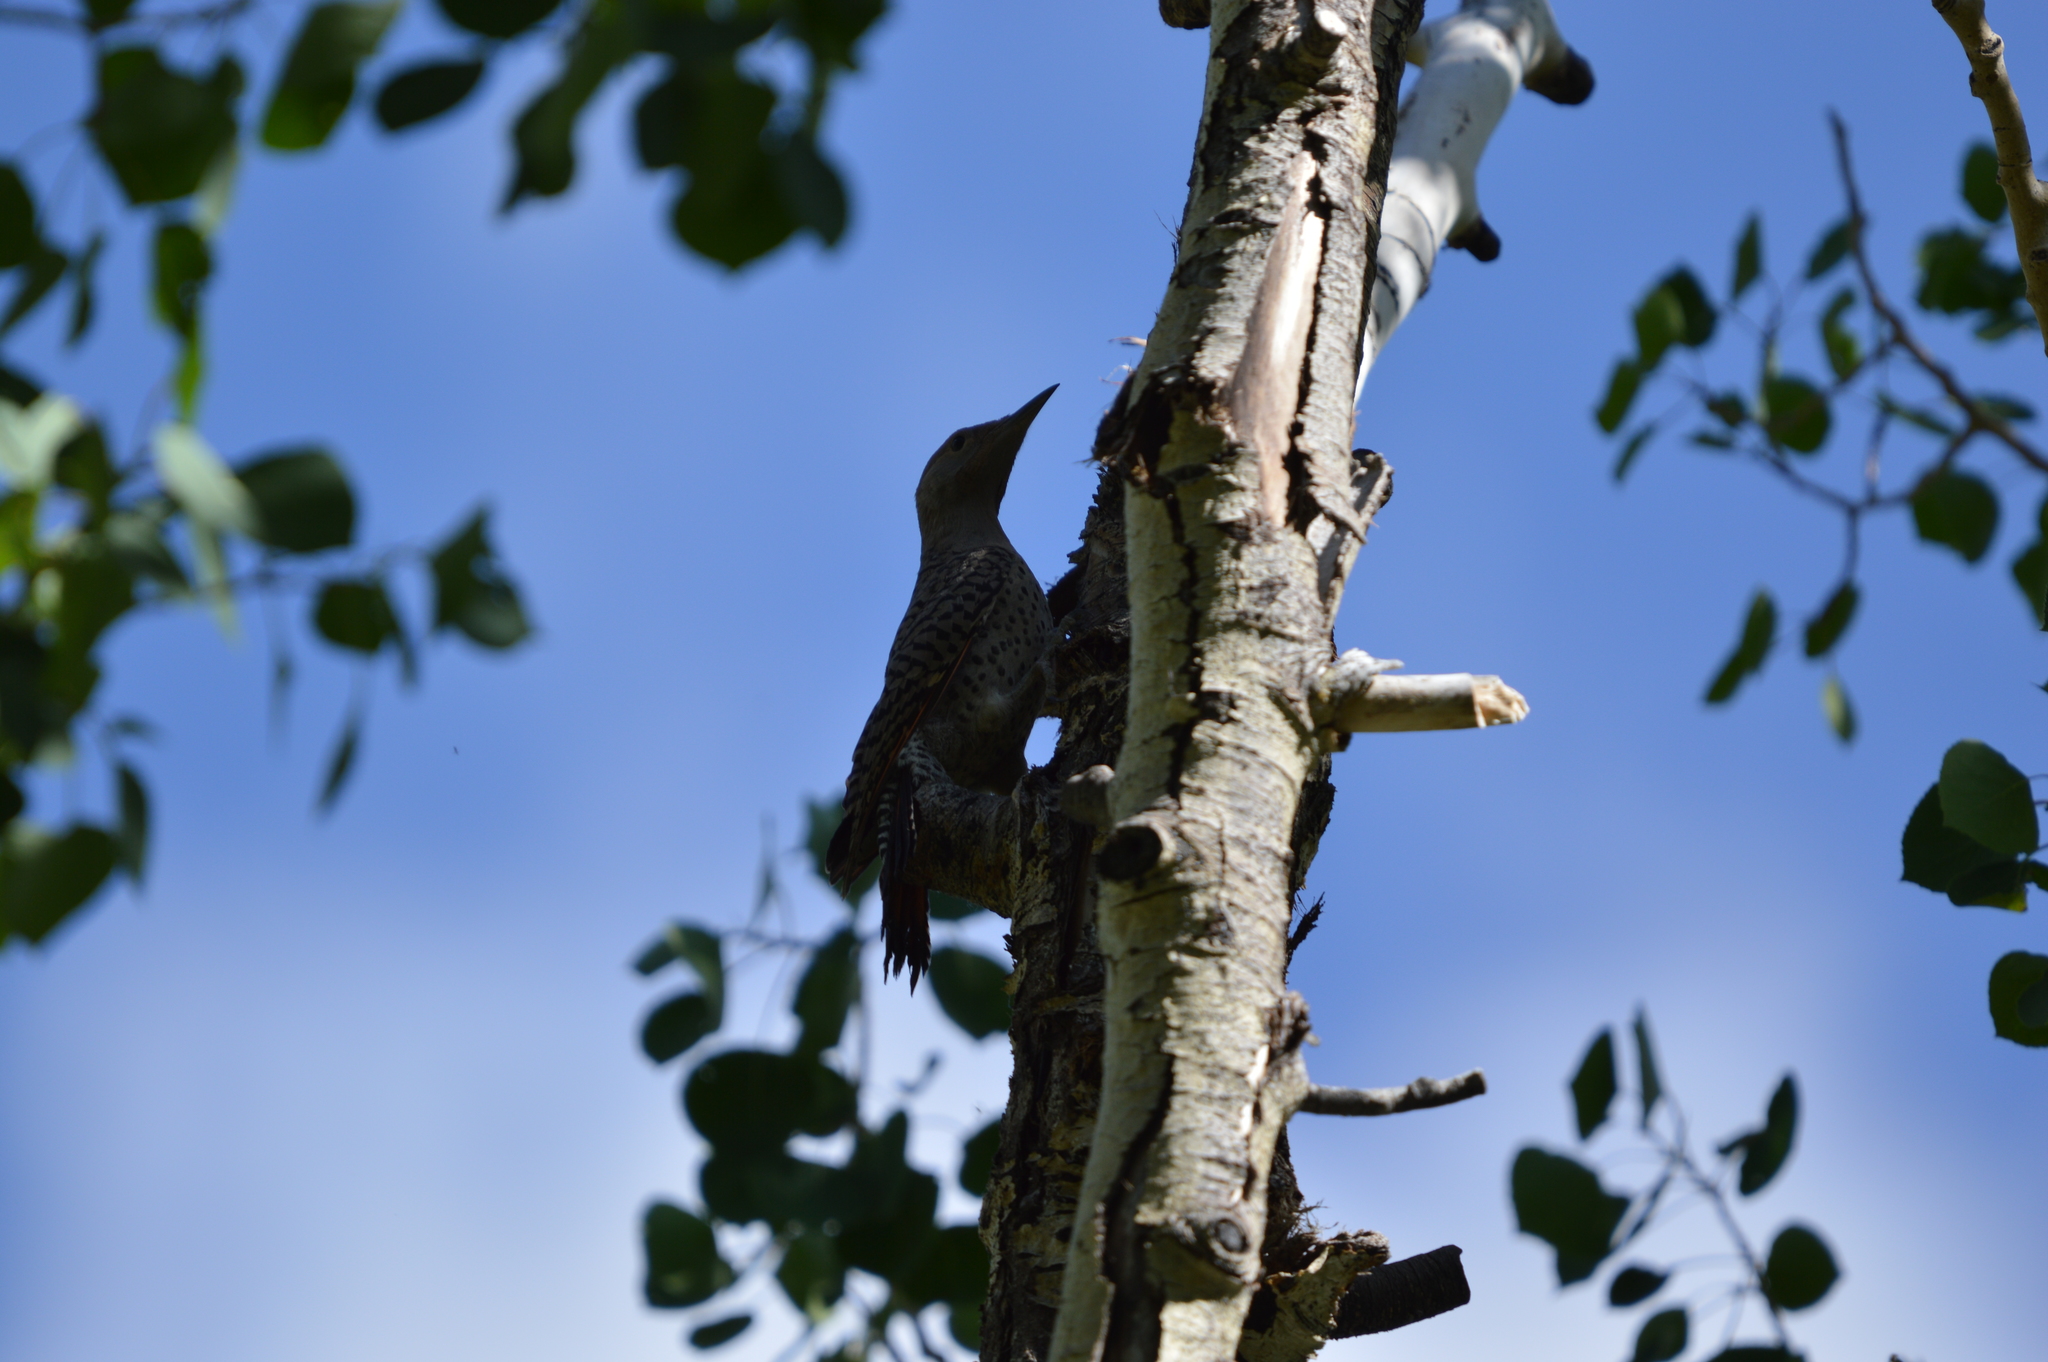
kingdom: Animalia
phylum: Chordata
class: Aves
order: Piciformes
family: Picidae
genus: Colaptes
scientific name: Colaptes auratus
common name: Northern flicker
